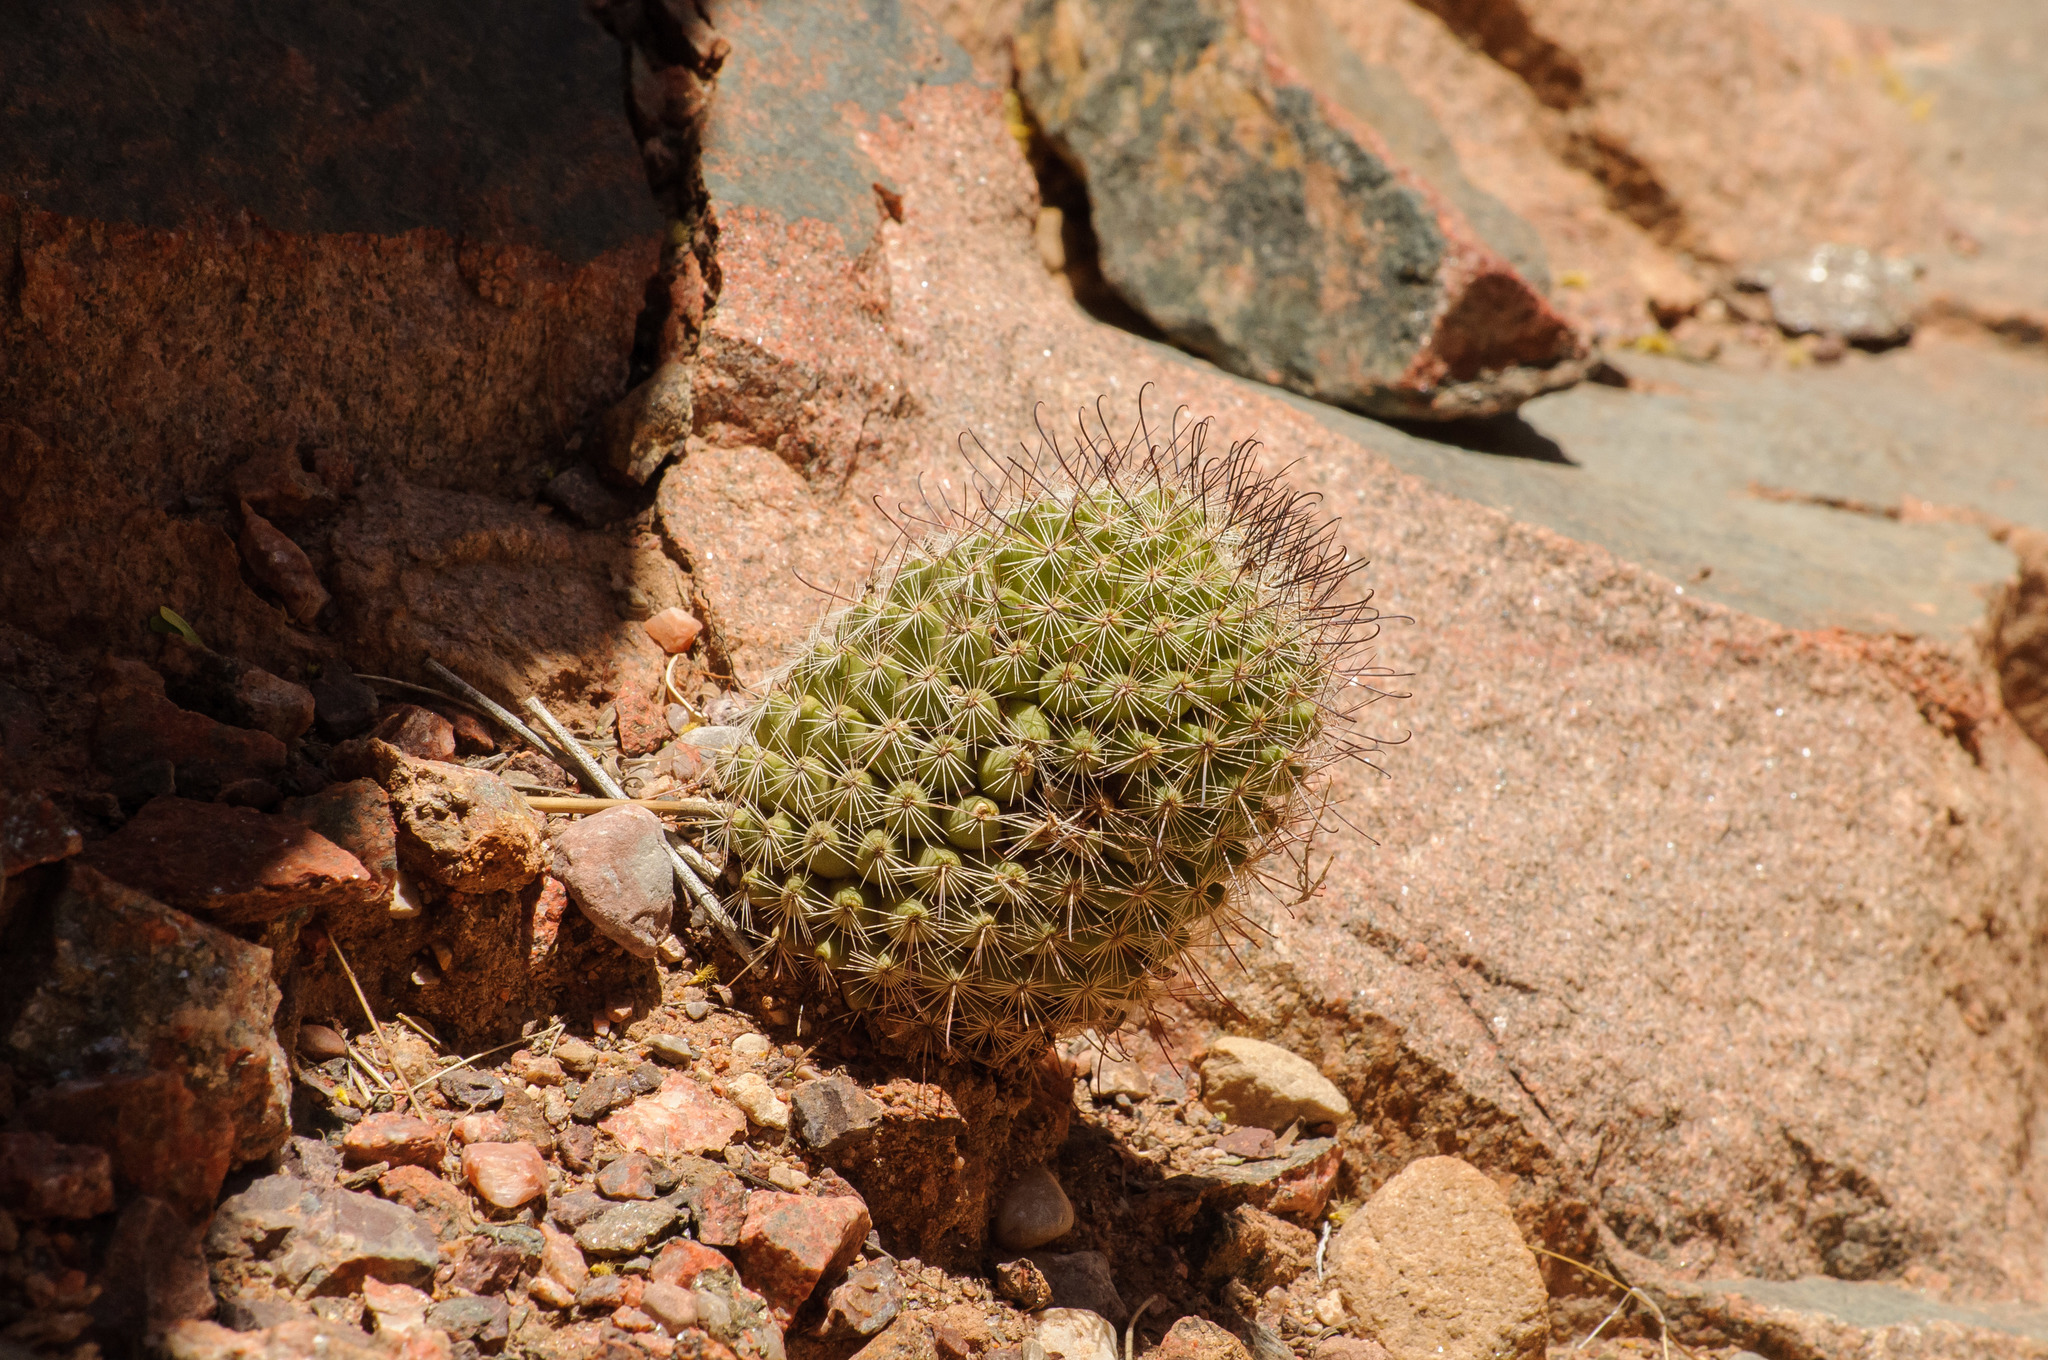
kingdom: Plantae
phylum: Tracheophyta
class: Magnoliopsida
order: Caryophyllales
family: Cactaceae
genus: Cochemiea
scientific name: Cochemiea grahamii
